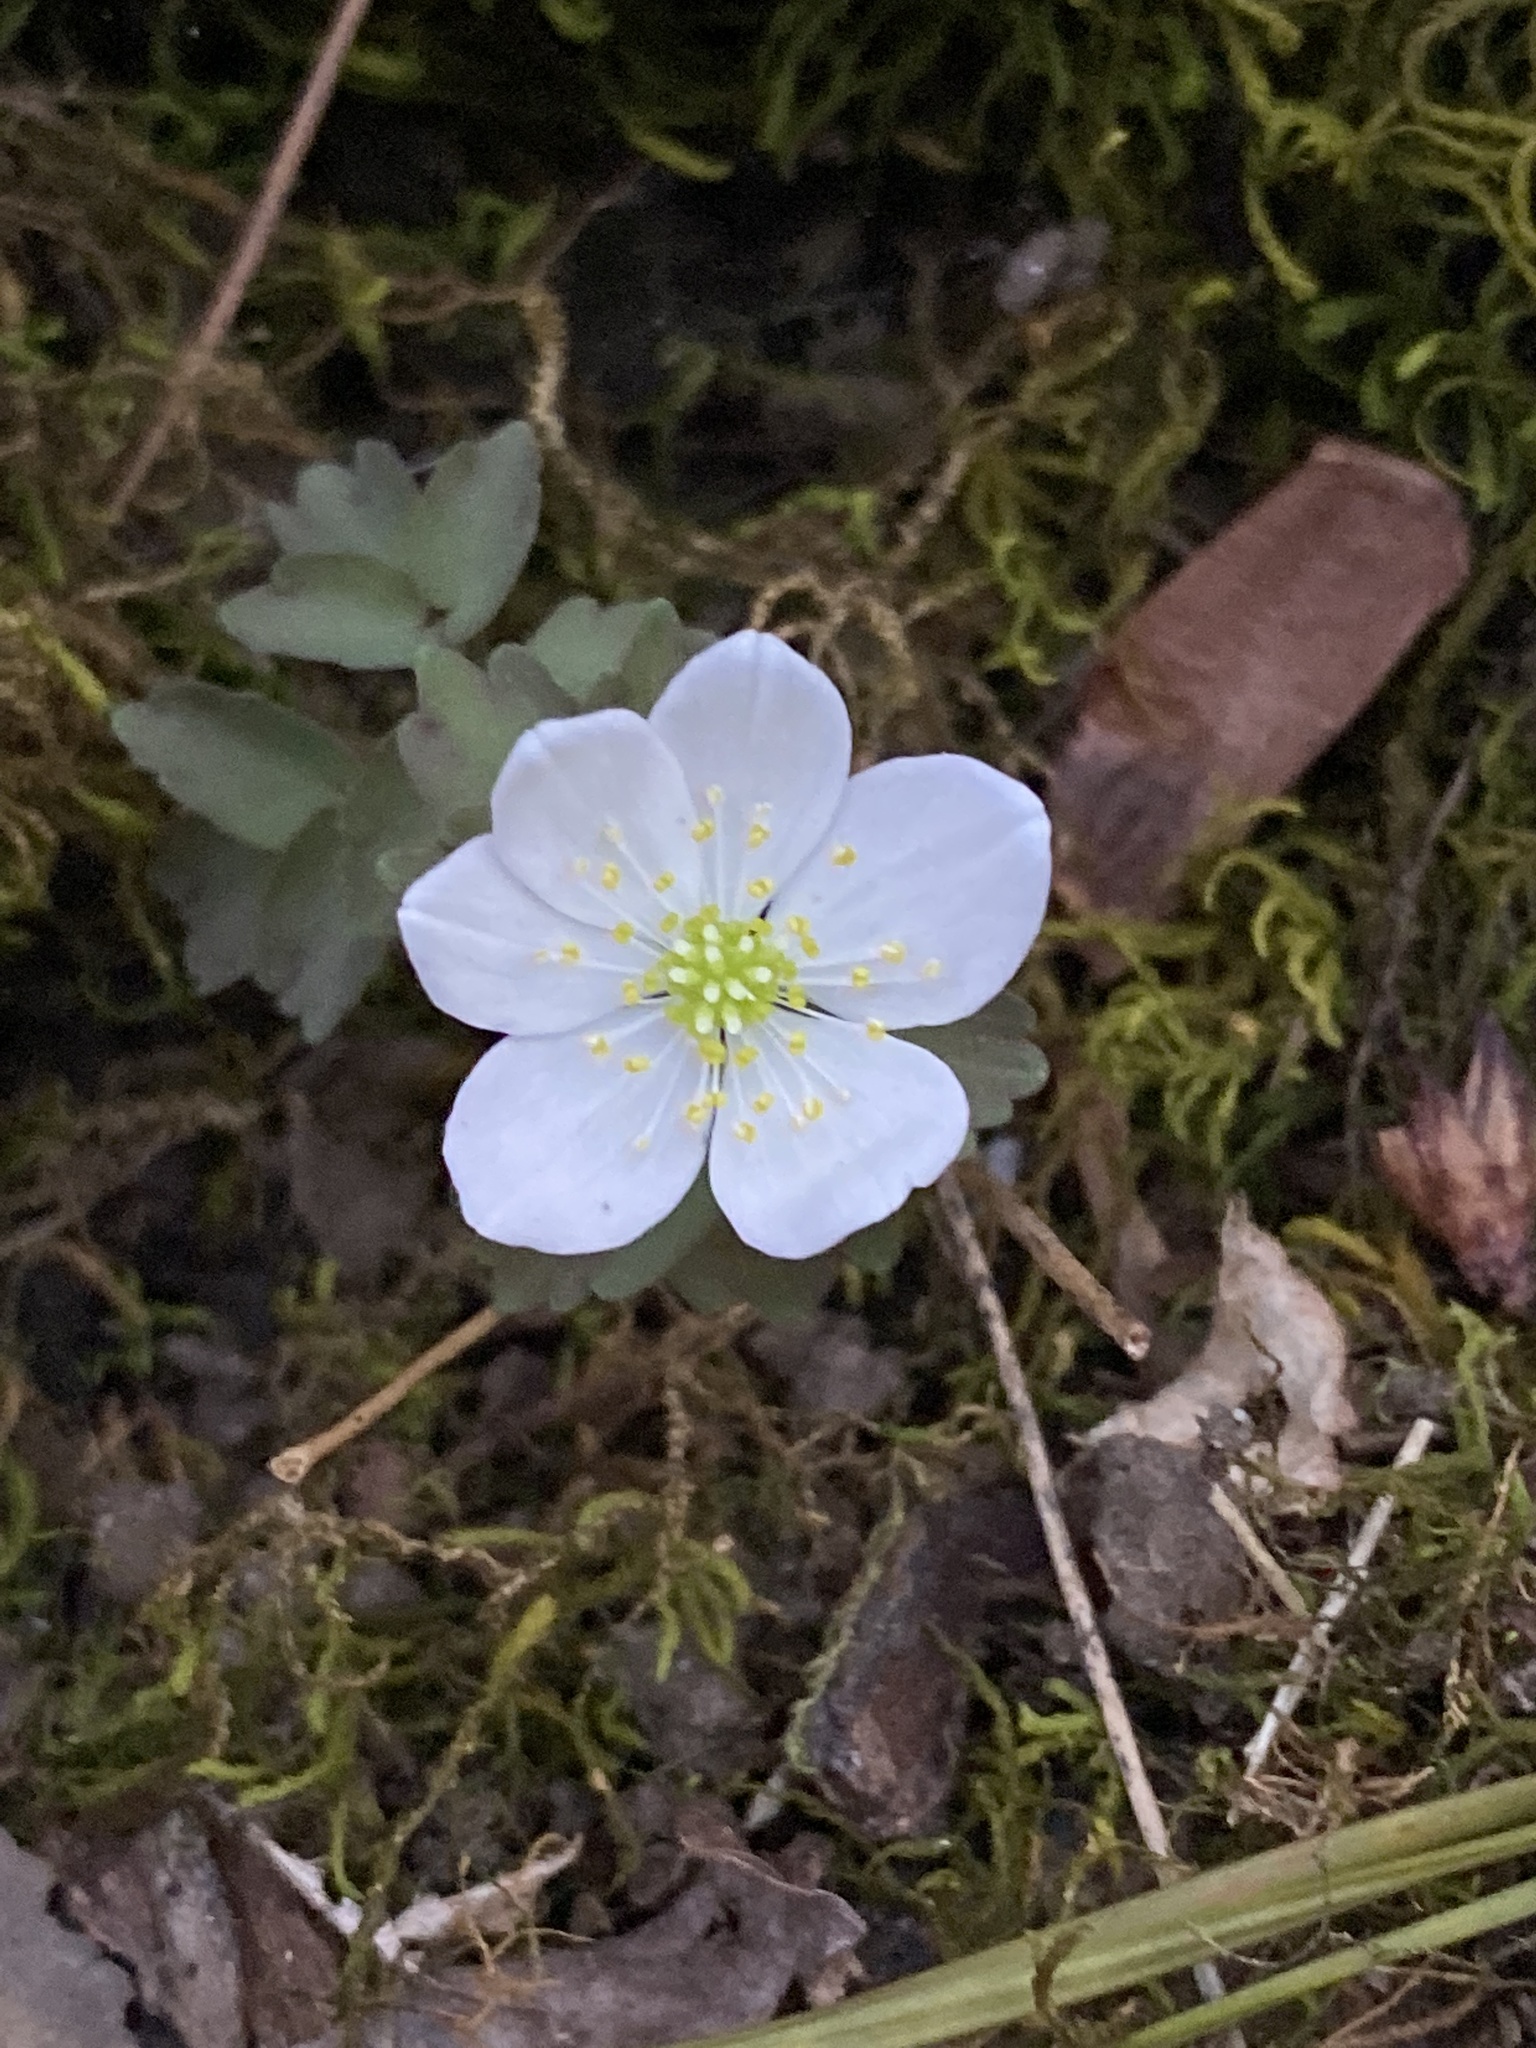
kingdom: Plantae
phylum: Tracheophyta
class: Magnoliopsida
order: Ranunculales
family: Ranunculaceae
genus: Thalictrum
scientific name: Thalictrum thalictroides
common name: Rue-anemone
